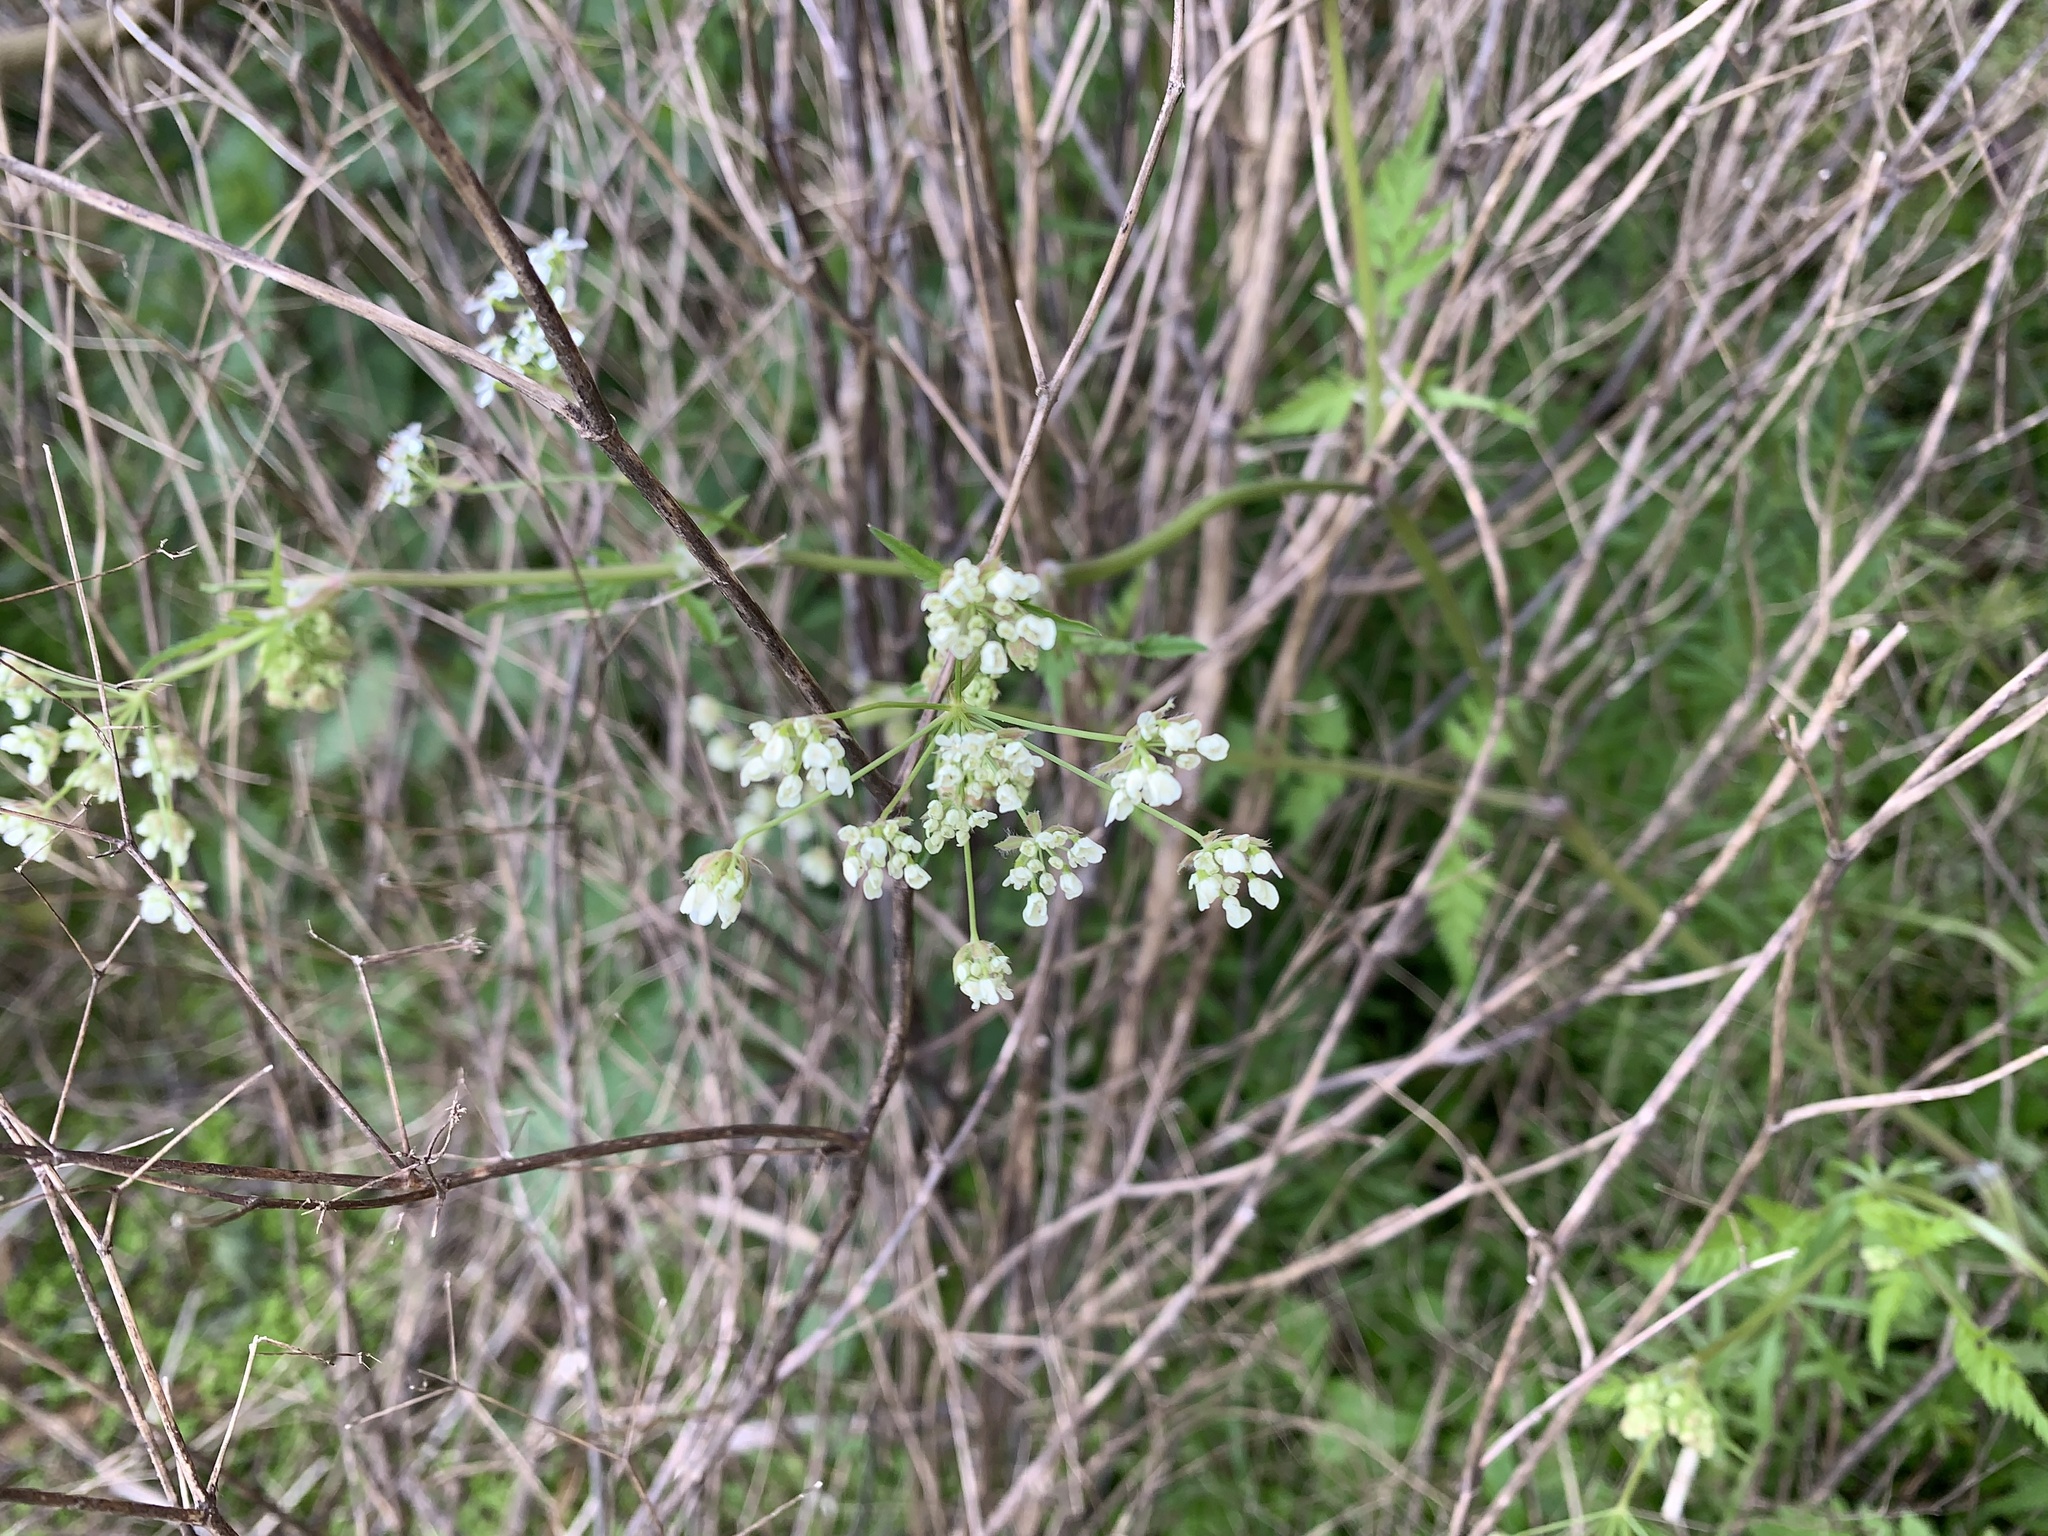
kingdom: Plantae
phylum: Tracheophyta
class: Magnoliopsida
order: Apiales
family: Apiaceae
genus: Anthriscus
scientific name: Anthriscus sylvestris
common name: Cow parsley
